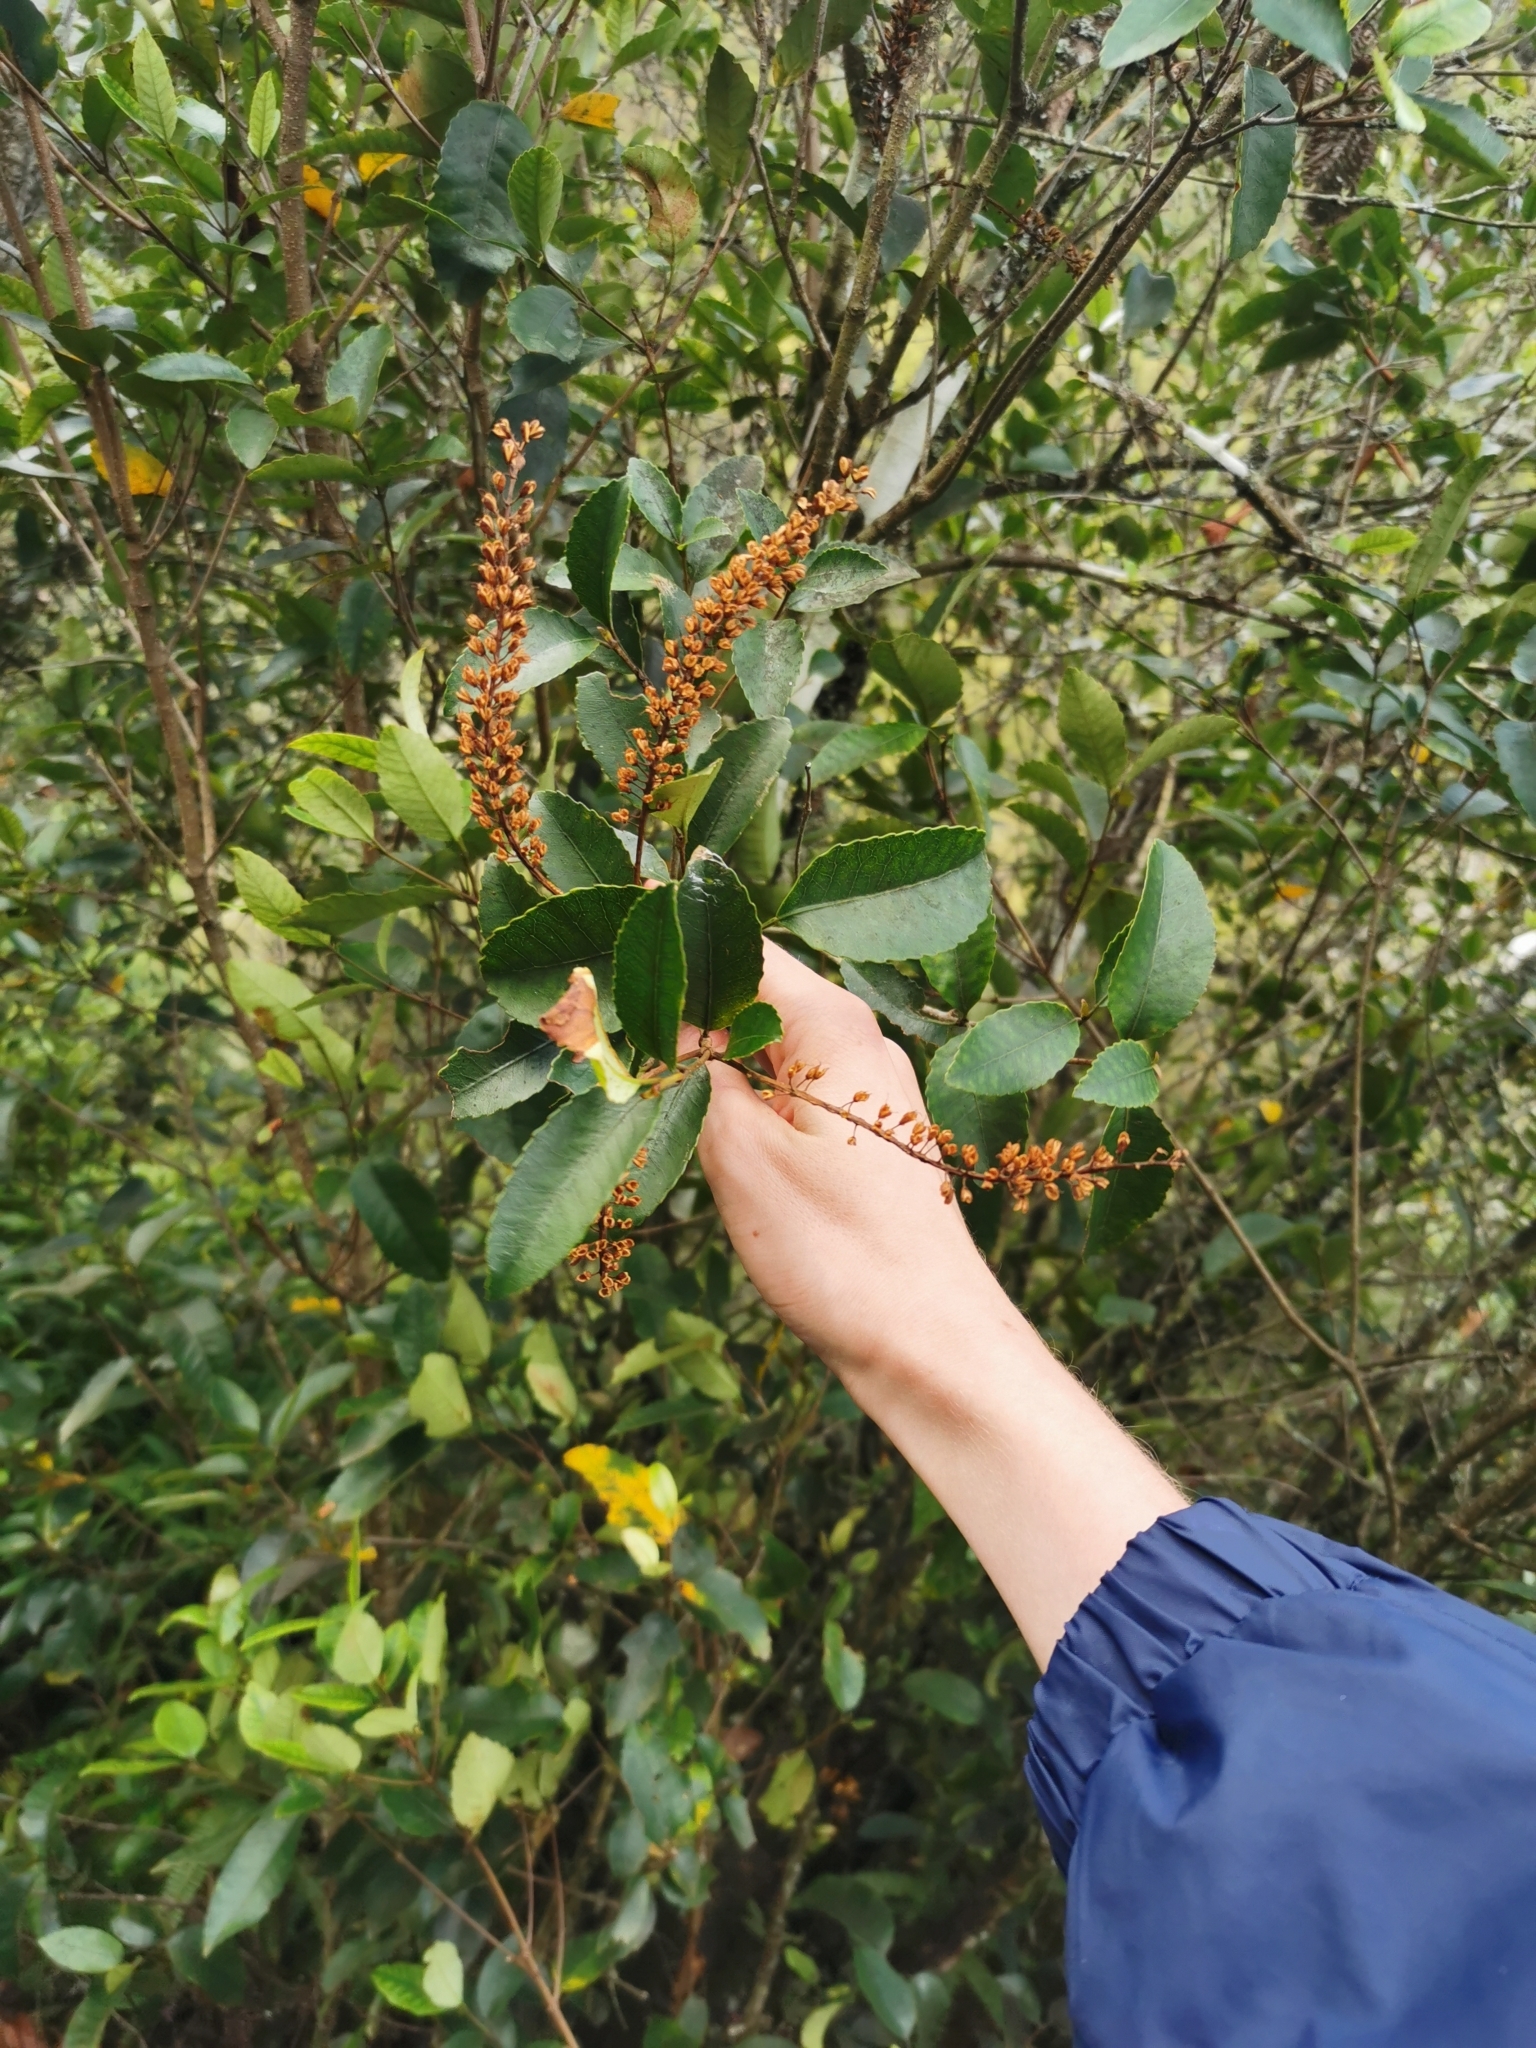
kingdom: Plantae
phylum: Tracheophyta
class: Magnoliopsida
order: Oxalidales
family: Cunoniaceae
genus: Pterophylla
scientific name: Pterophylla racemosa
